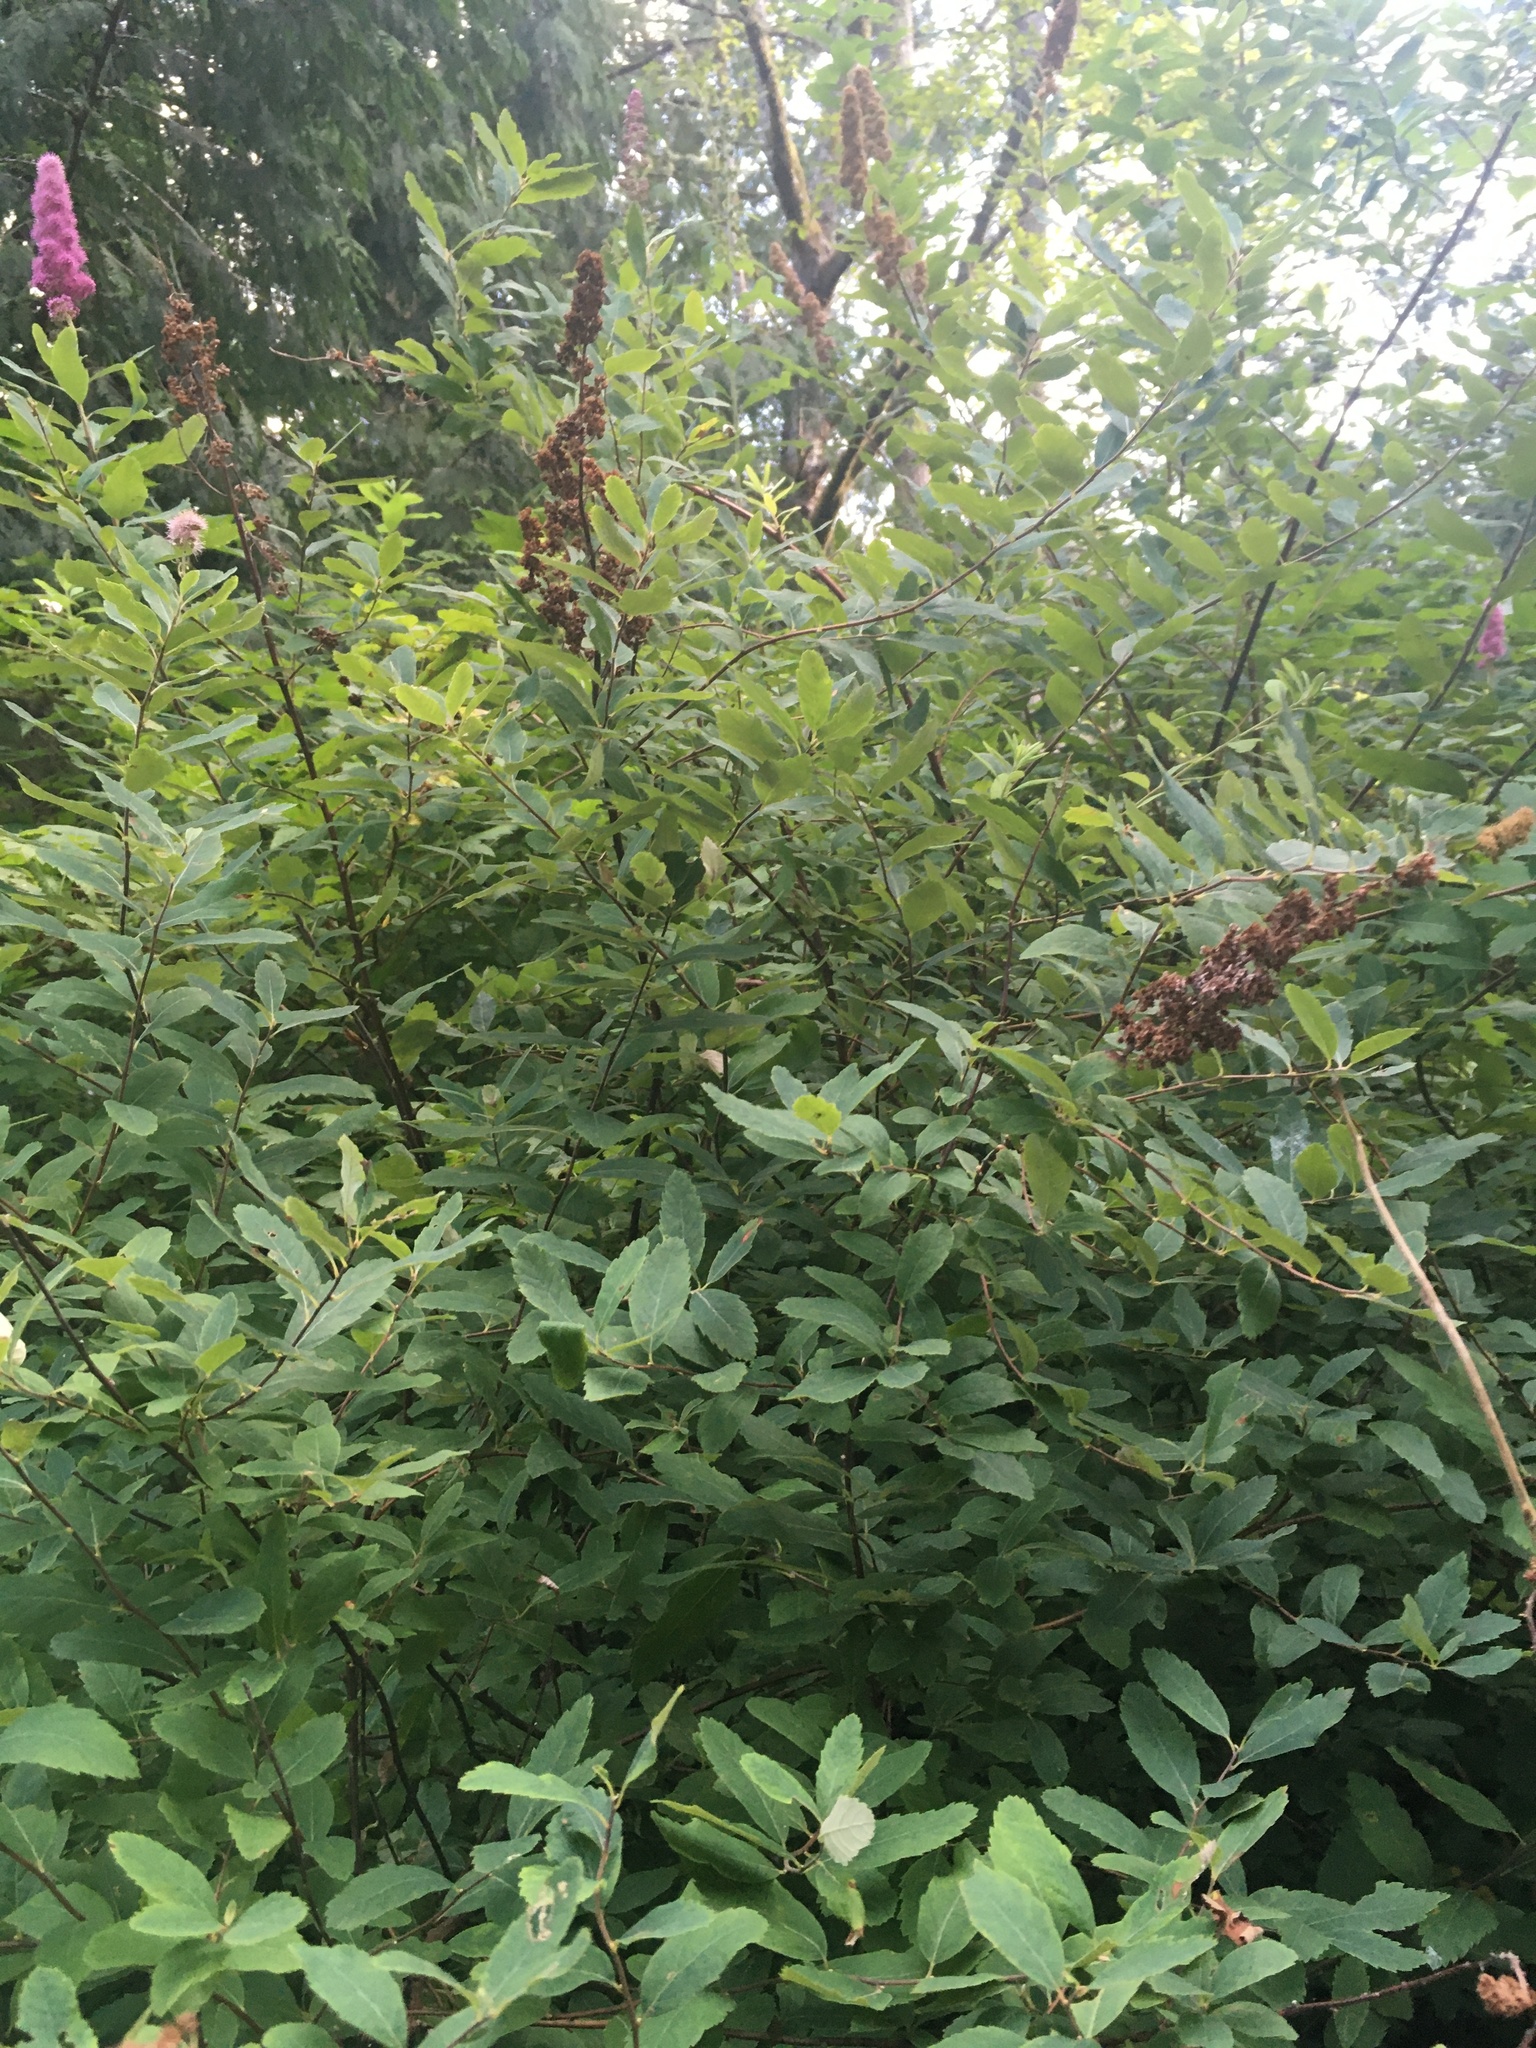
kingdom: Plantae
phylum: Tracheophyta
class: Magnoliopsida
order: Rosales
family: Rosaceae
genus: Spiraea
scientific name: Spiraea douglasii
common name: Steeplebush
